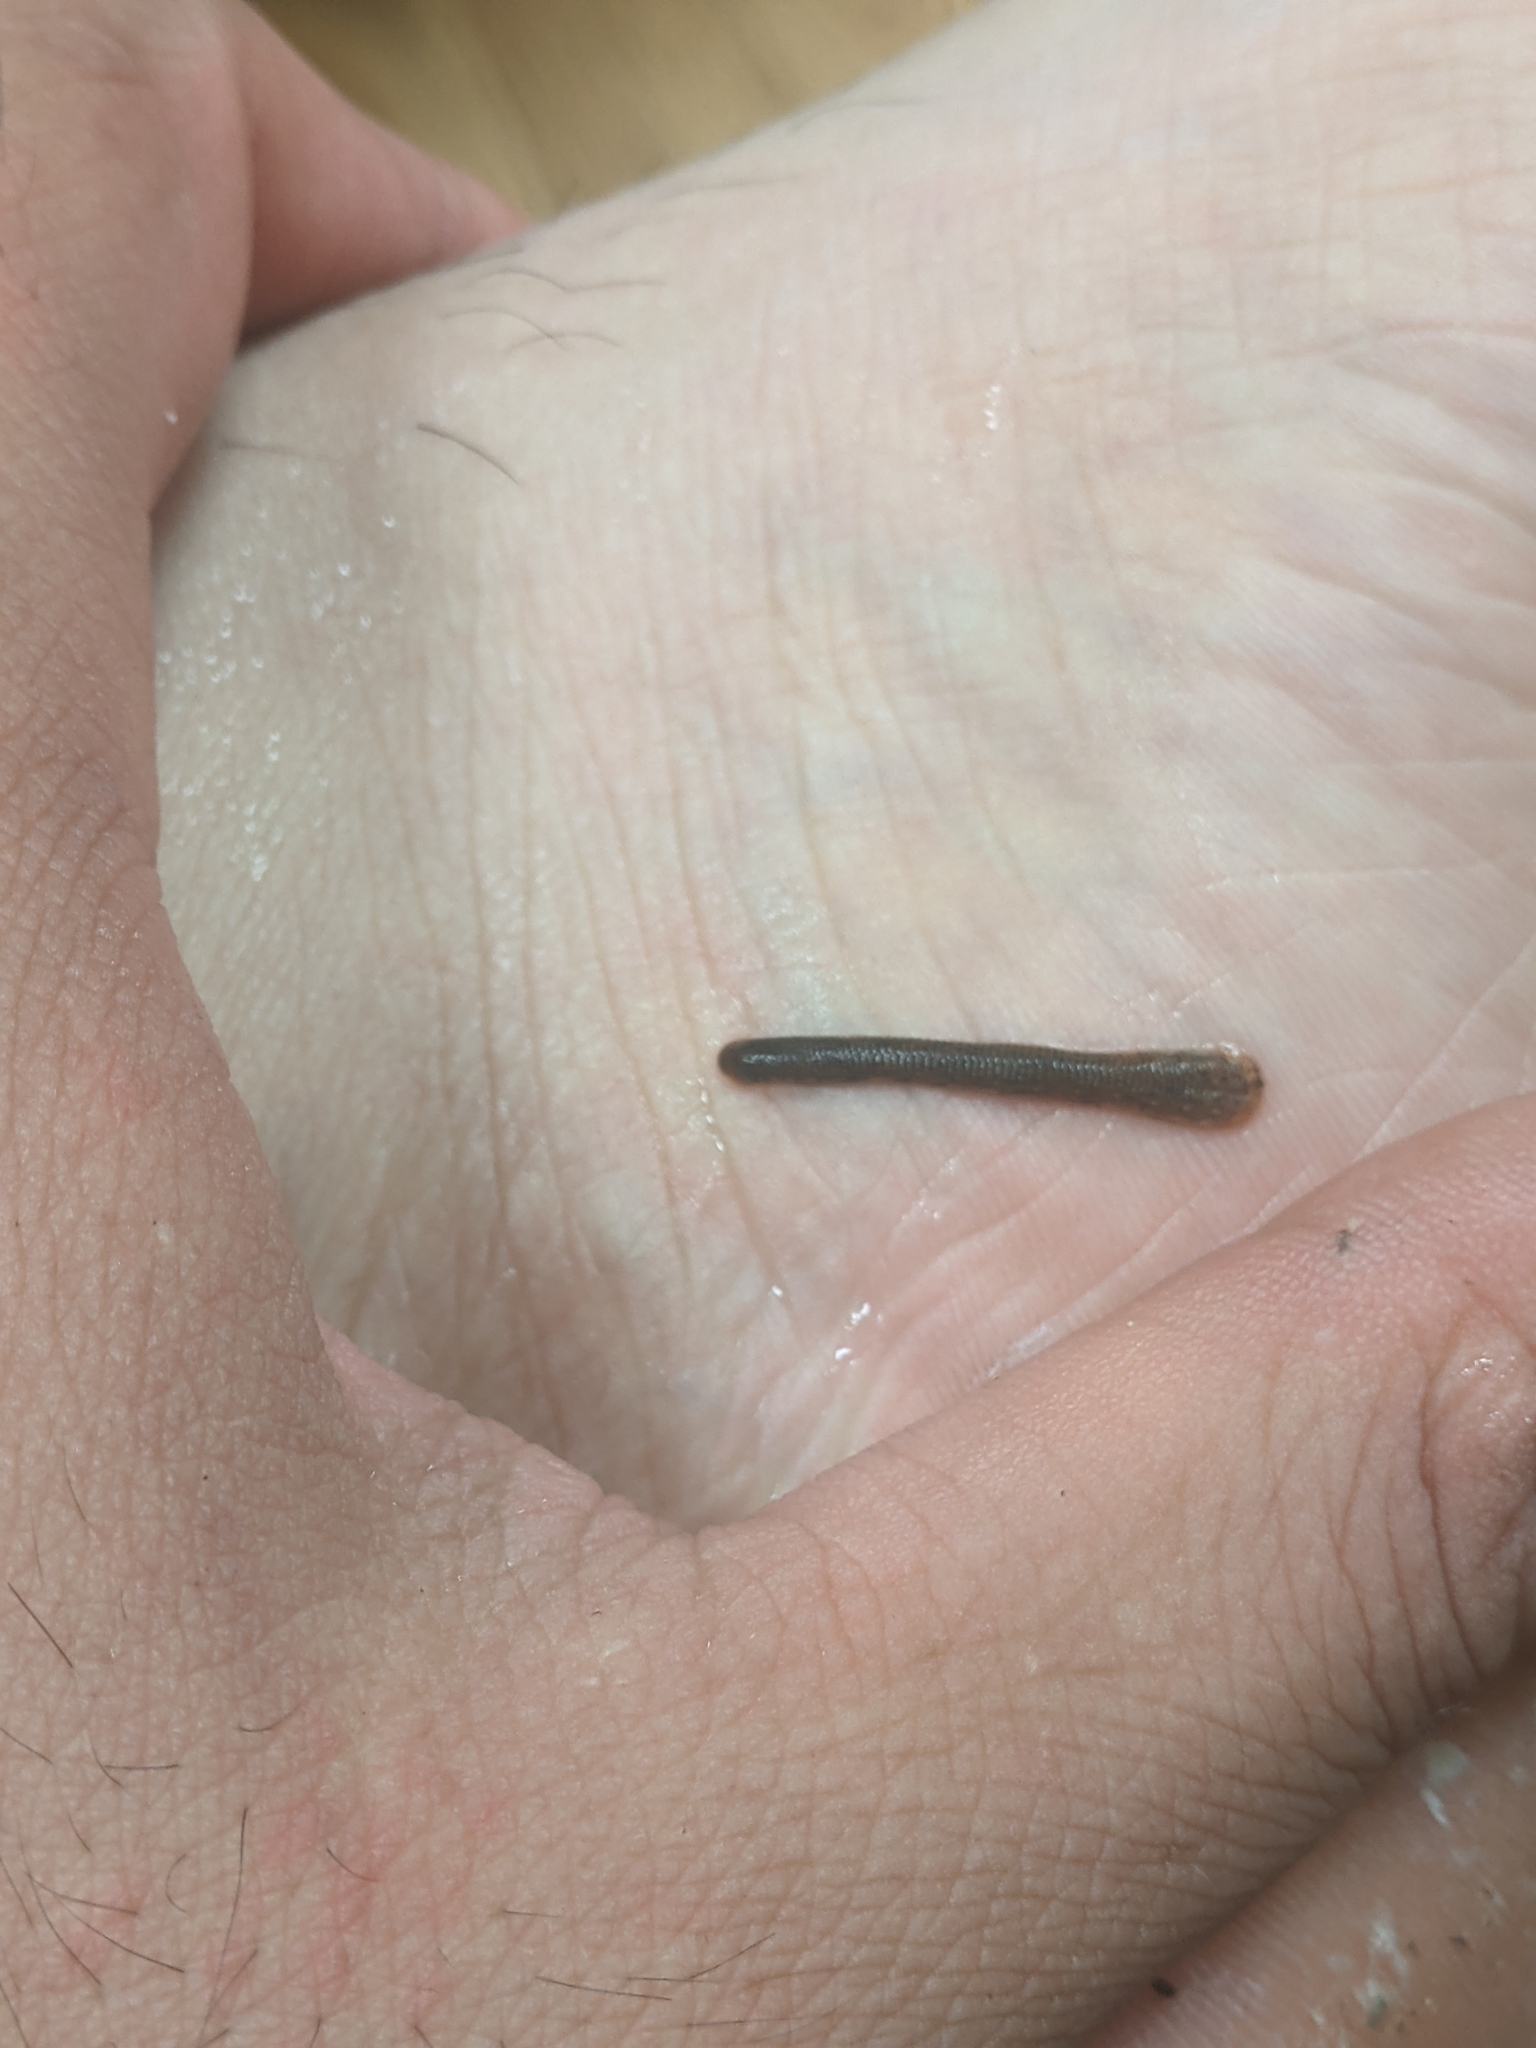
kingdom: Animalia
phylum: Annelida
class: Clitellata
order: Arhynchobdellida
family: Haemadipsidae
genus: Haemadipsa
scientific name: Haemadipsa rjukjuana
